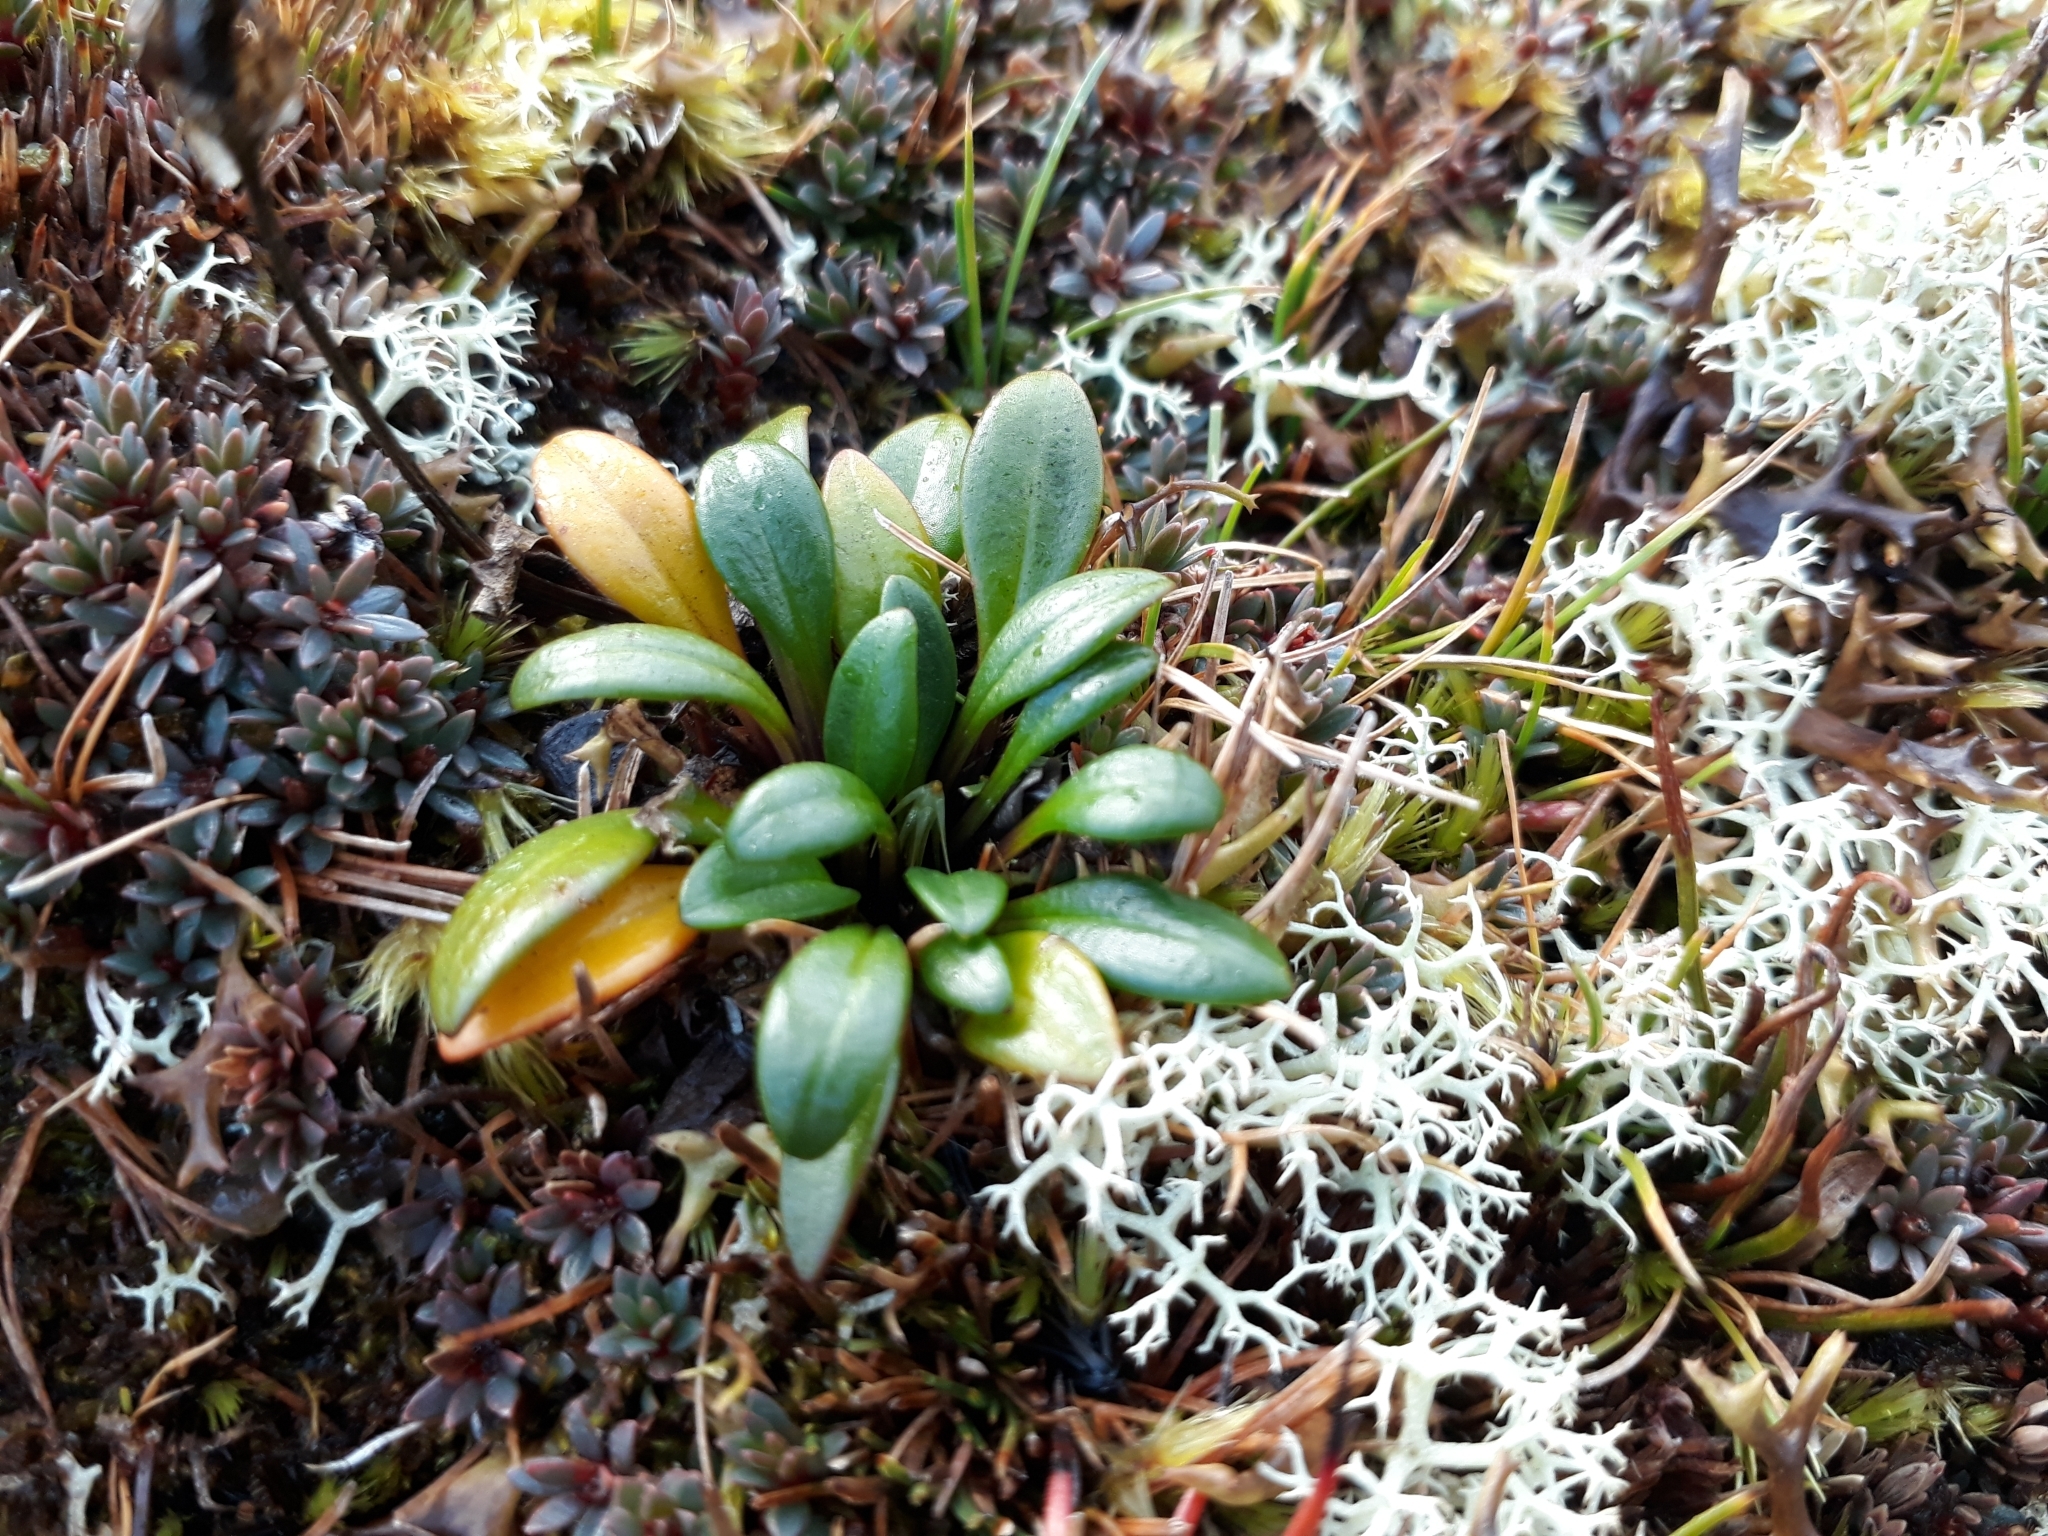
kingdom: Plantae
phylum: Tracheophyta
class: Magnoliopsida
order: Gentianales
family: Gentianaceae
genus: Gentianella
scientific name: Gentianella saxosa
